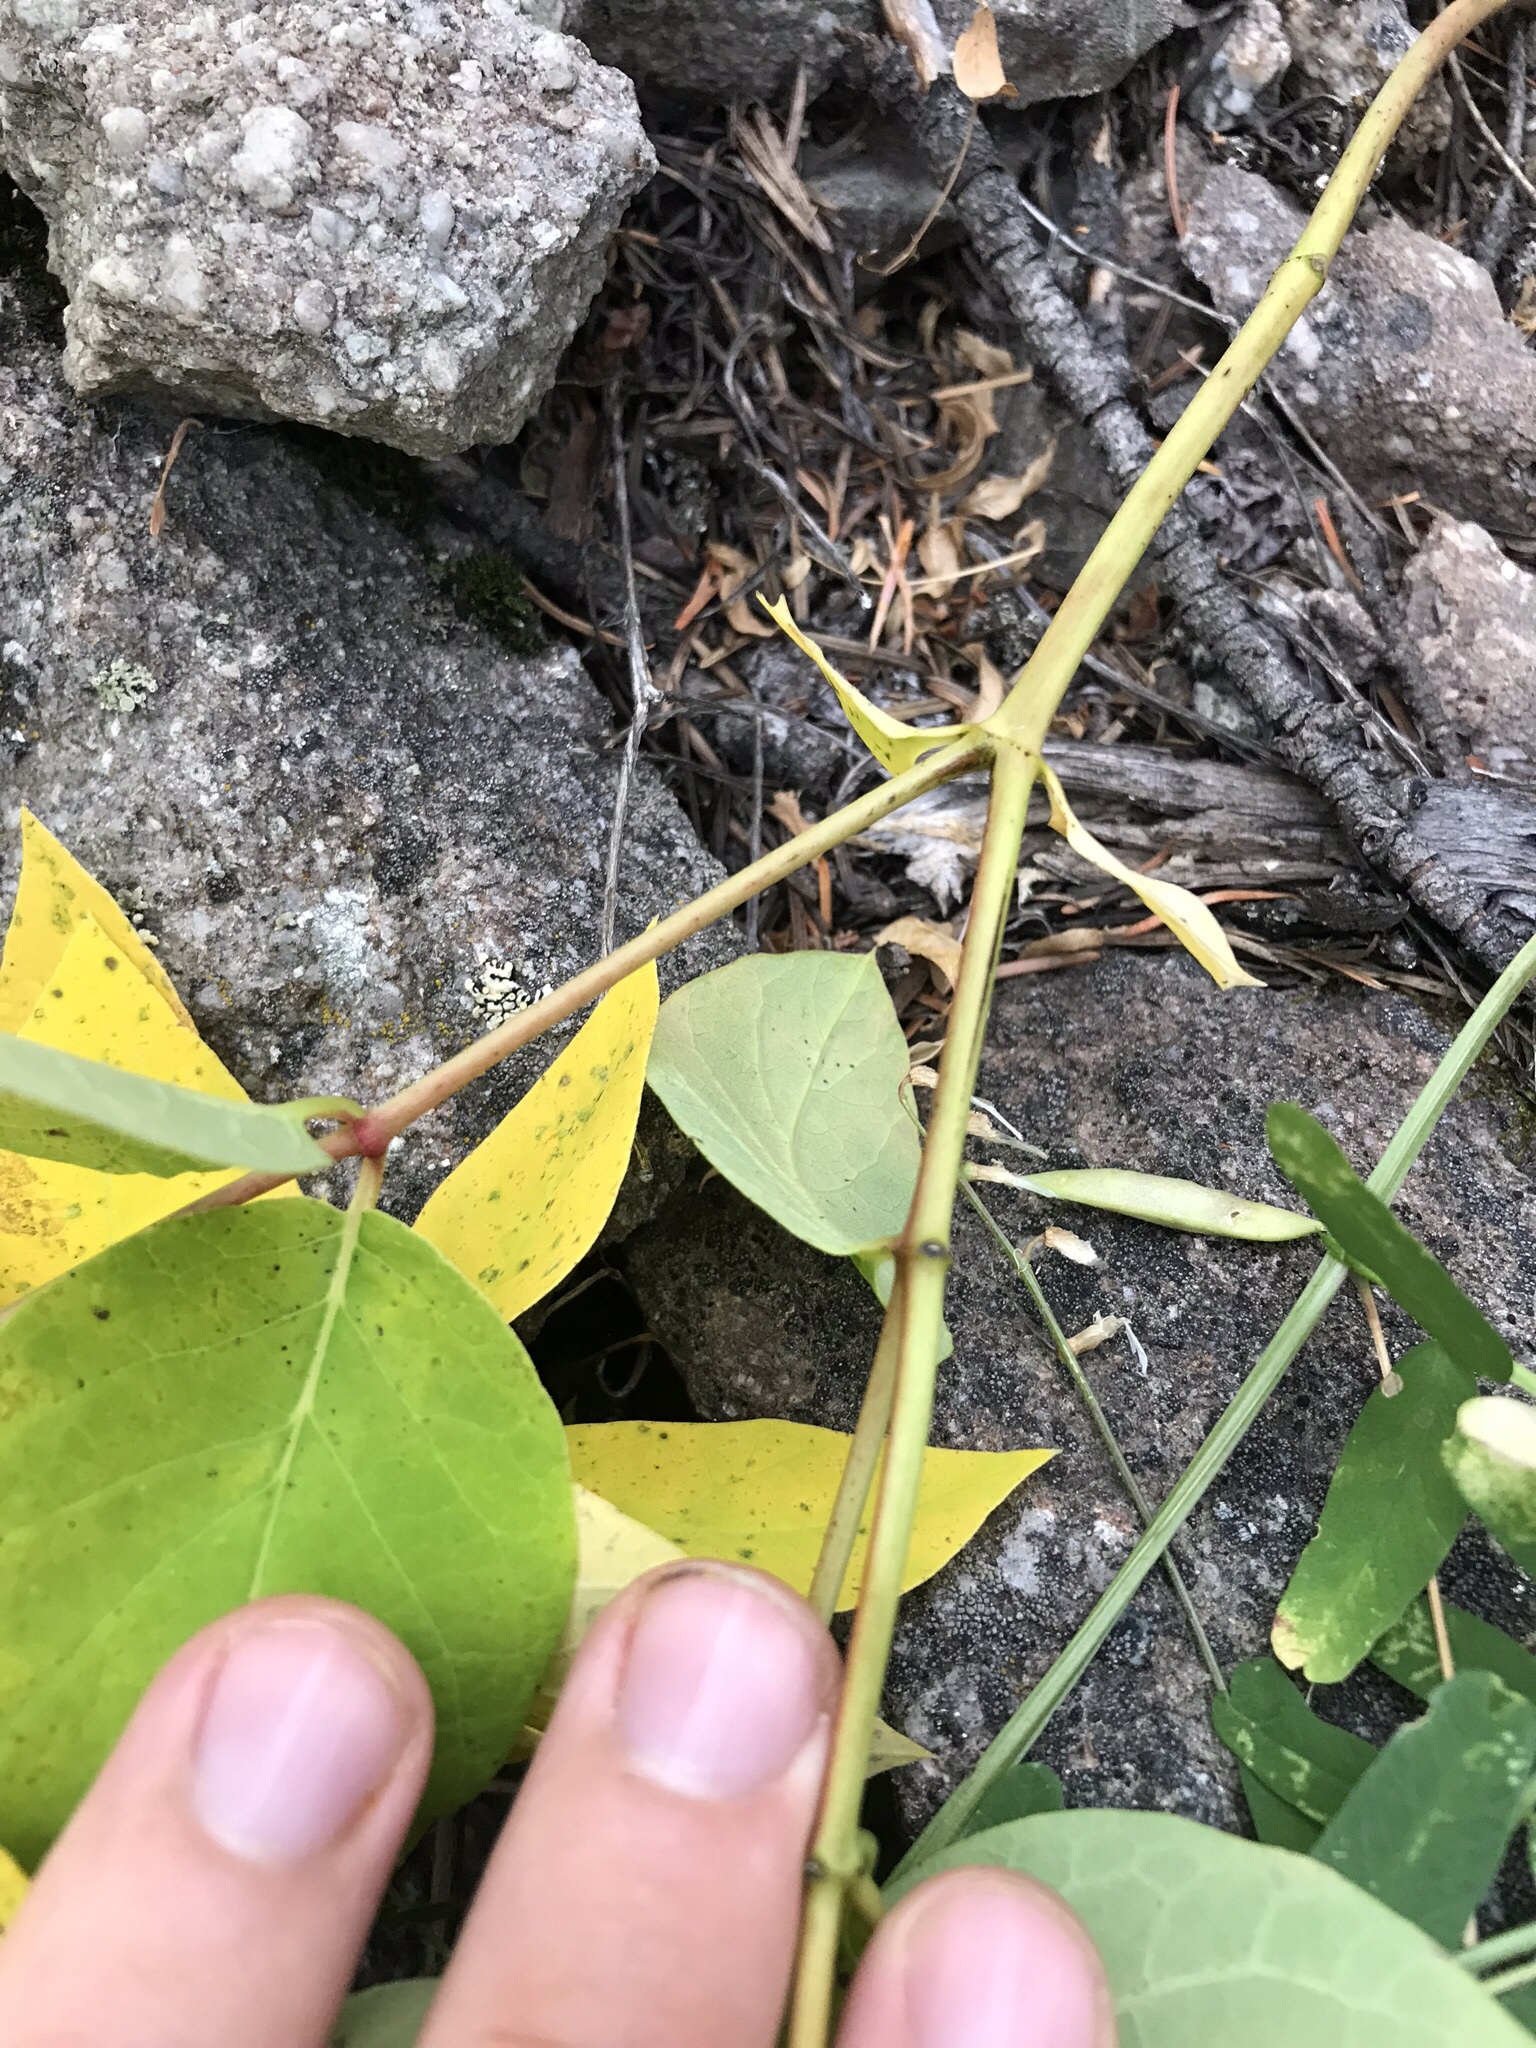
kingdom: Plantae
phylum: Tracheophyta
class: Magnoliopsida
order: Gentianales
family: Apocynaceae
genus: Apocynum
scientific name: Apocynum androsaemifolium
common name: Spreading dogbane
